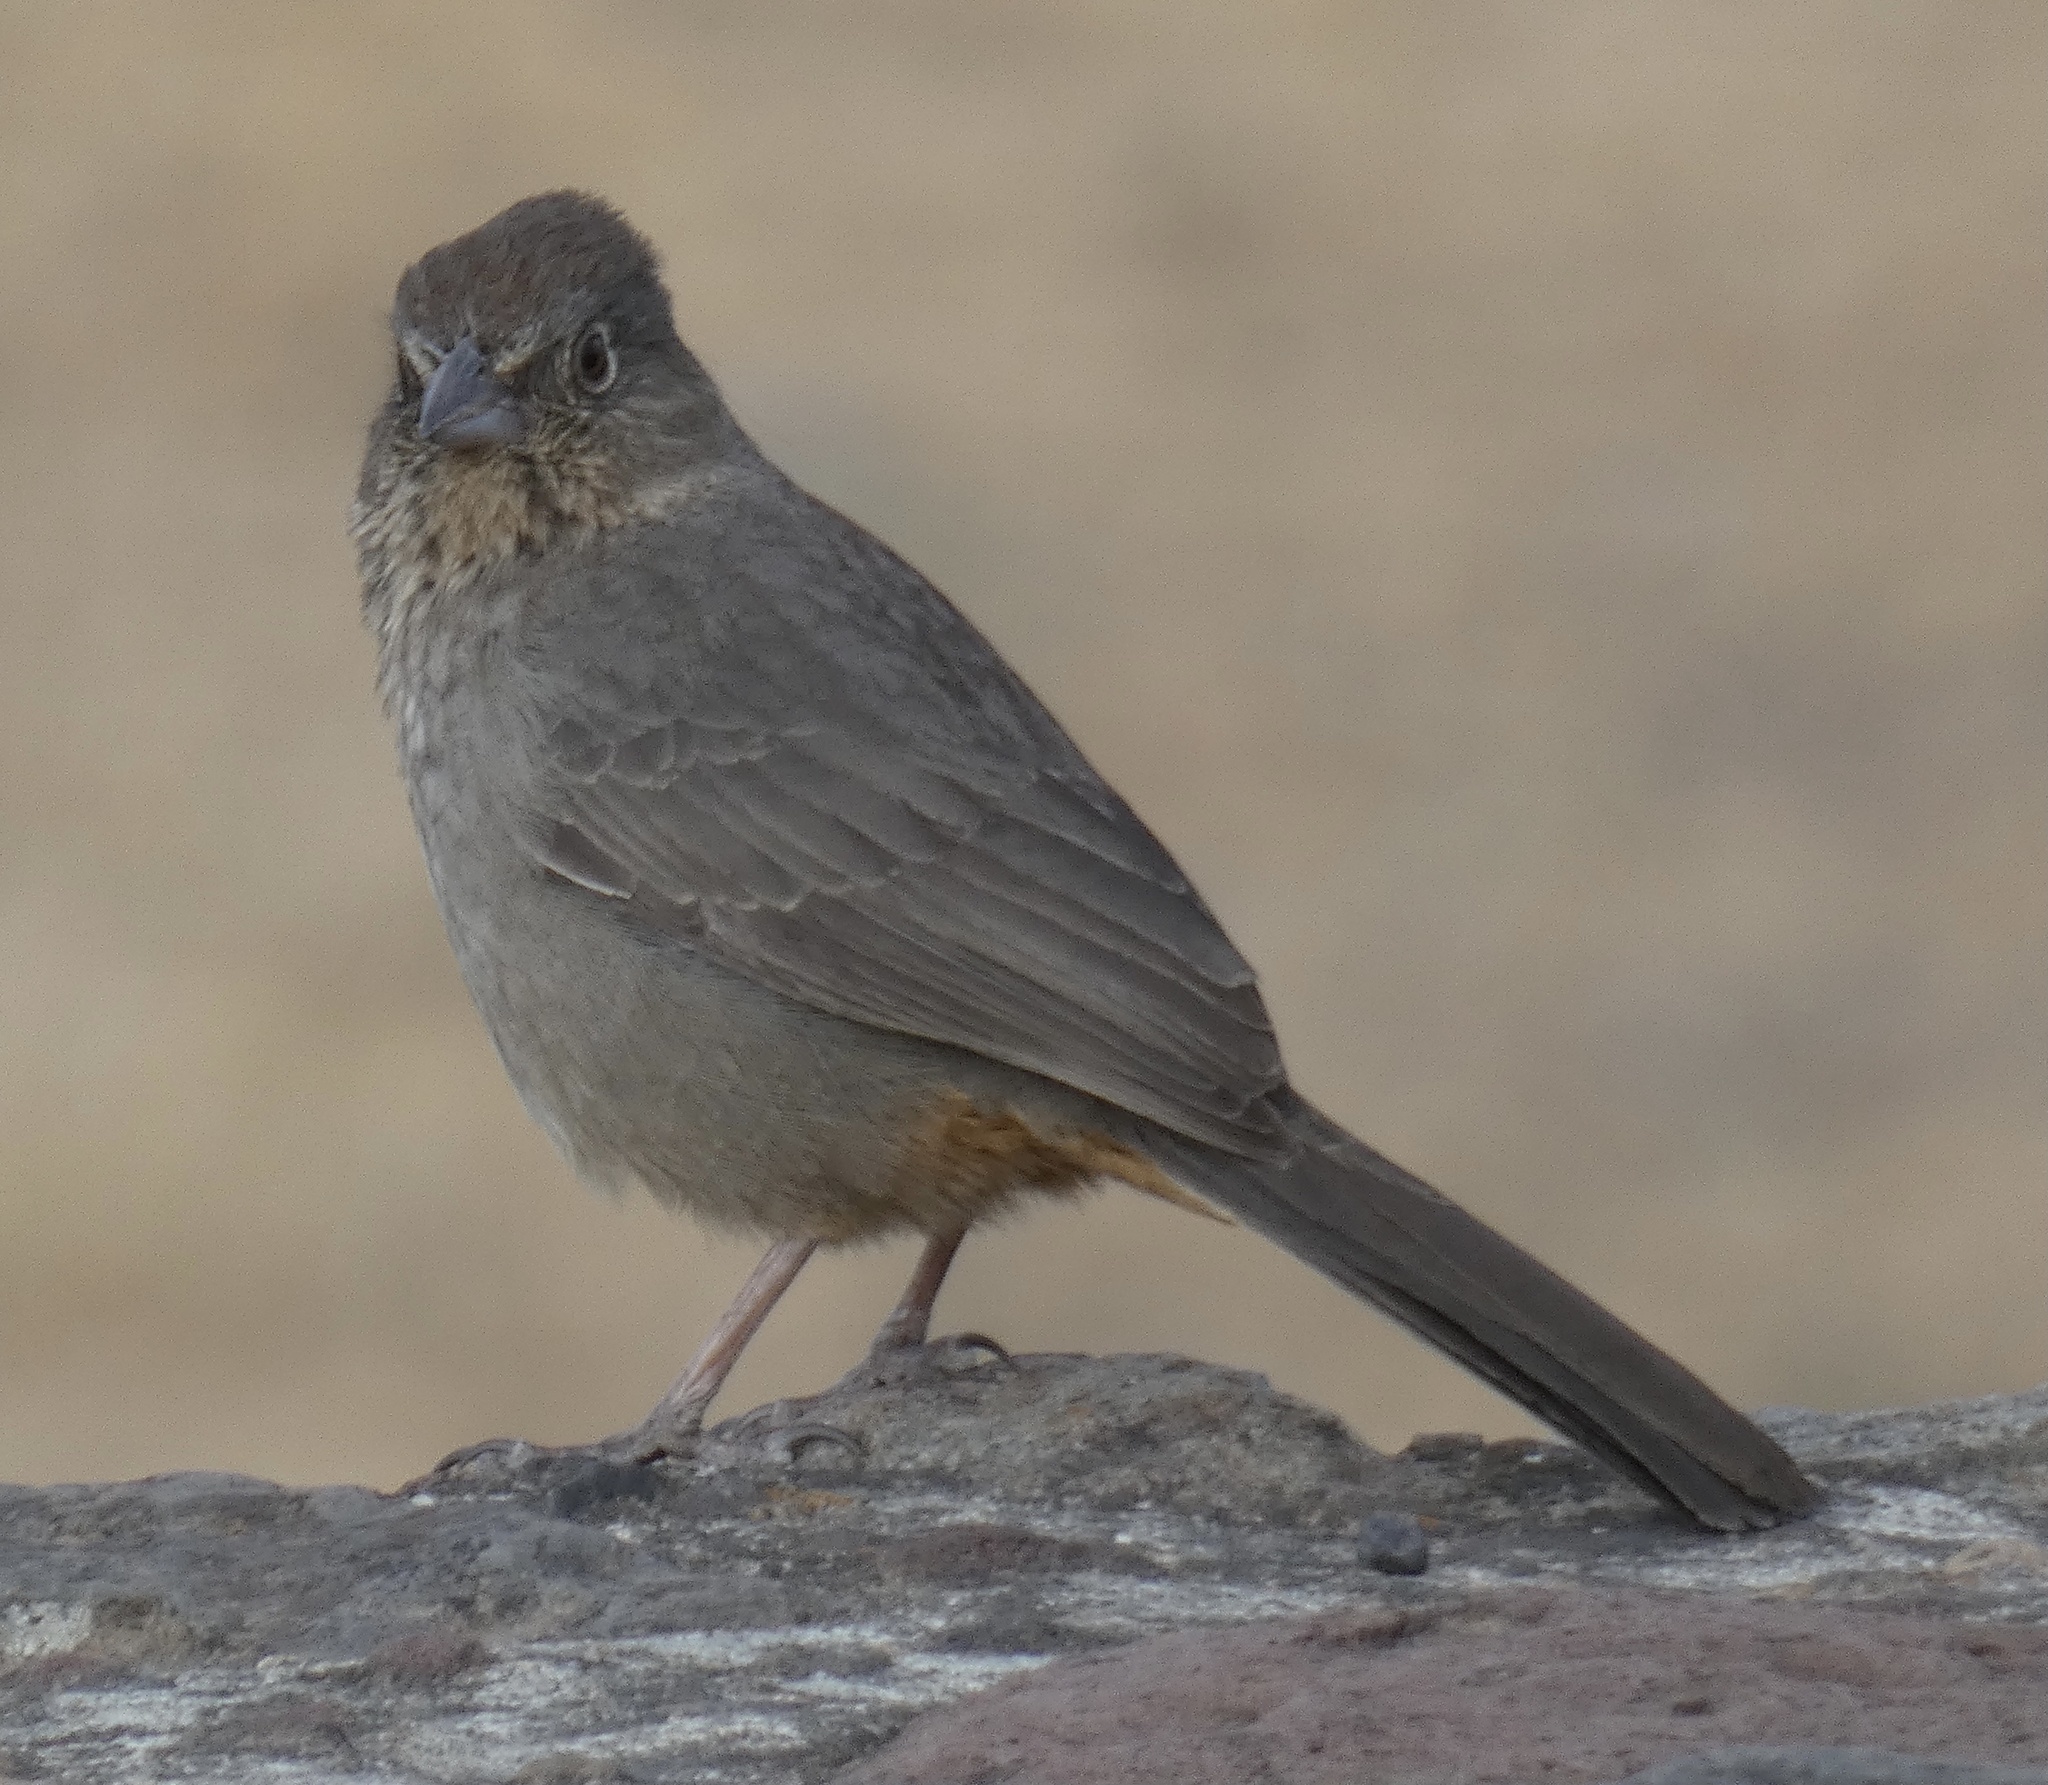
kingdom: Animalia
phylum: Chordata
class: Aves
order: Passeriformes
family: Passerellidae
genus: Melozone
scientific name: Melozone fusca
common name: Canyon towhee
